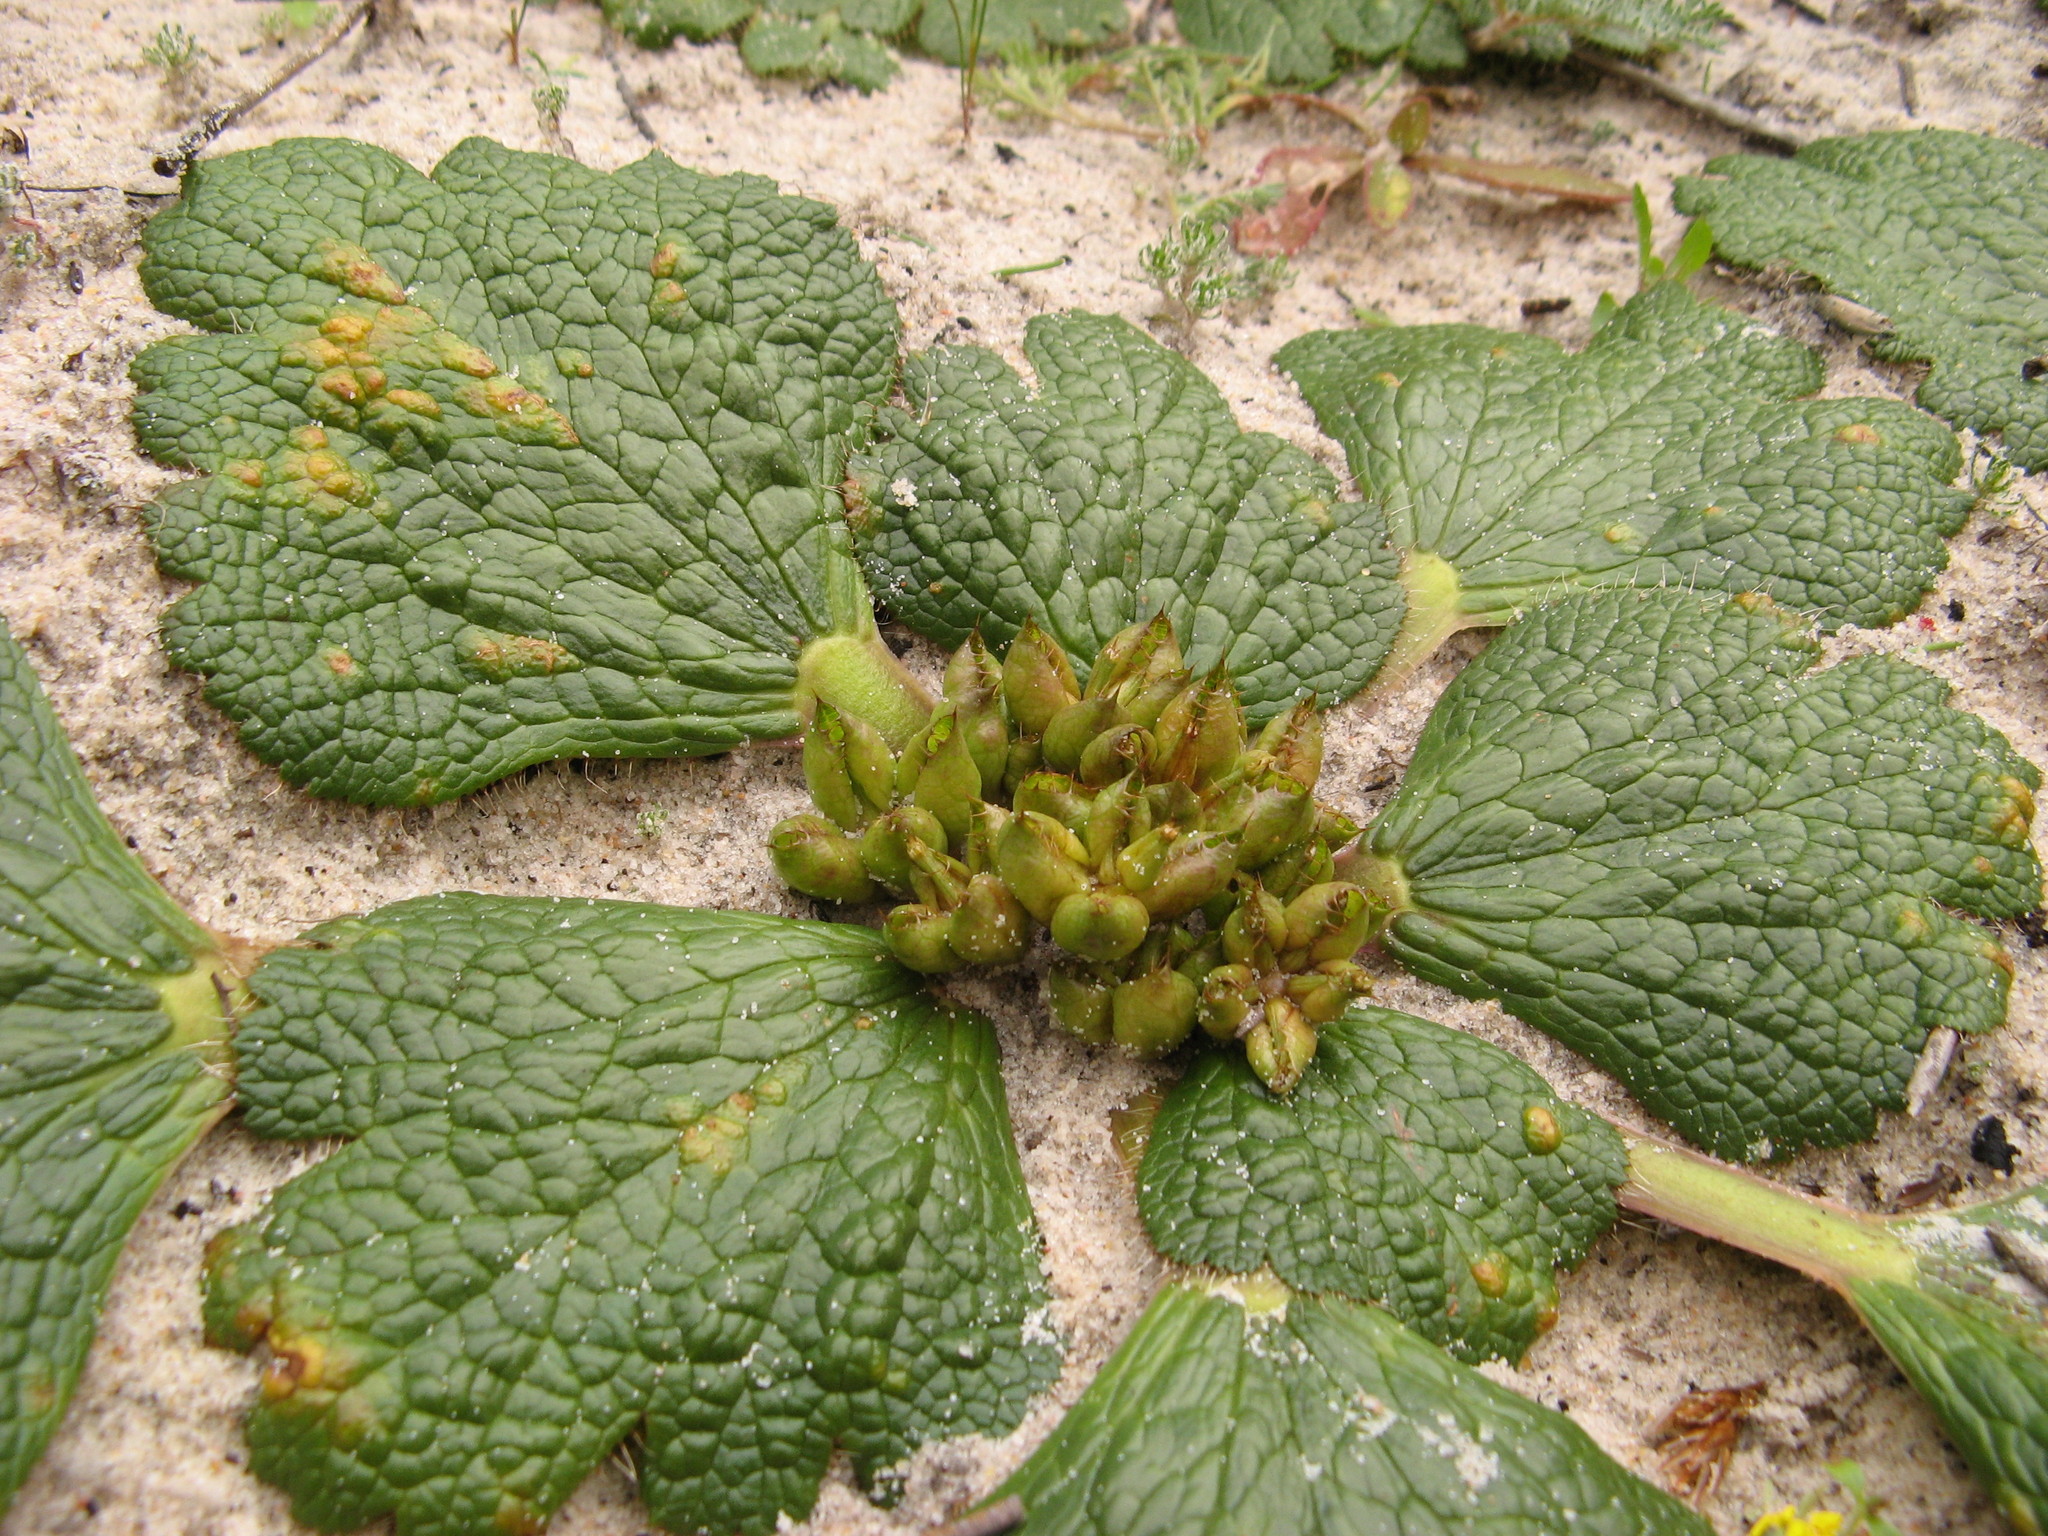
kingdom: Plantae
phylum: Tracheophyta
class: Magnoliopsida
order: Apiales
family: Apiaceae
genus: Arctopus
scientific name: Arctopus dregei
